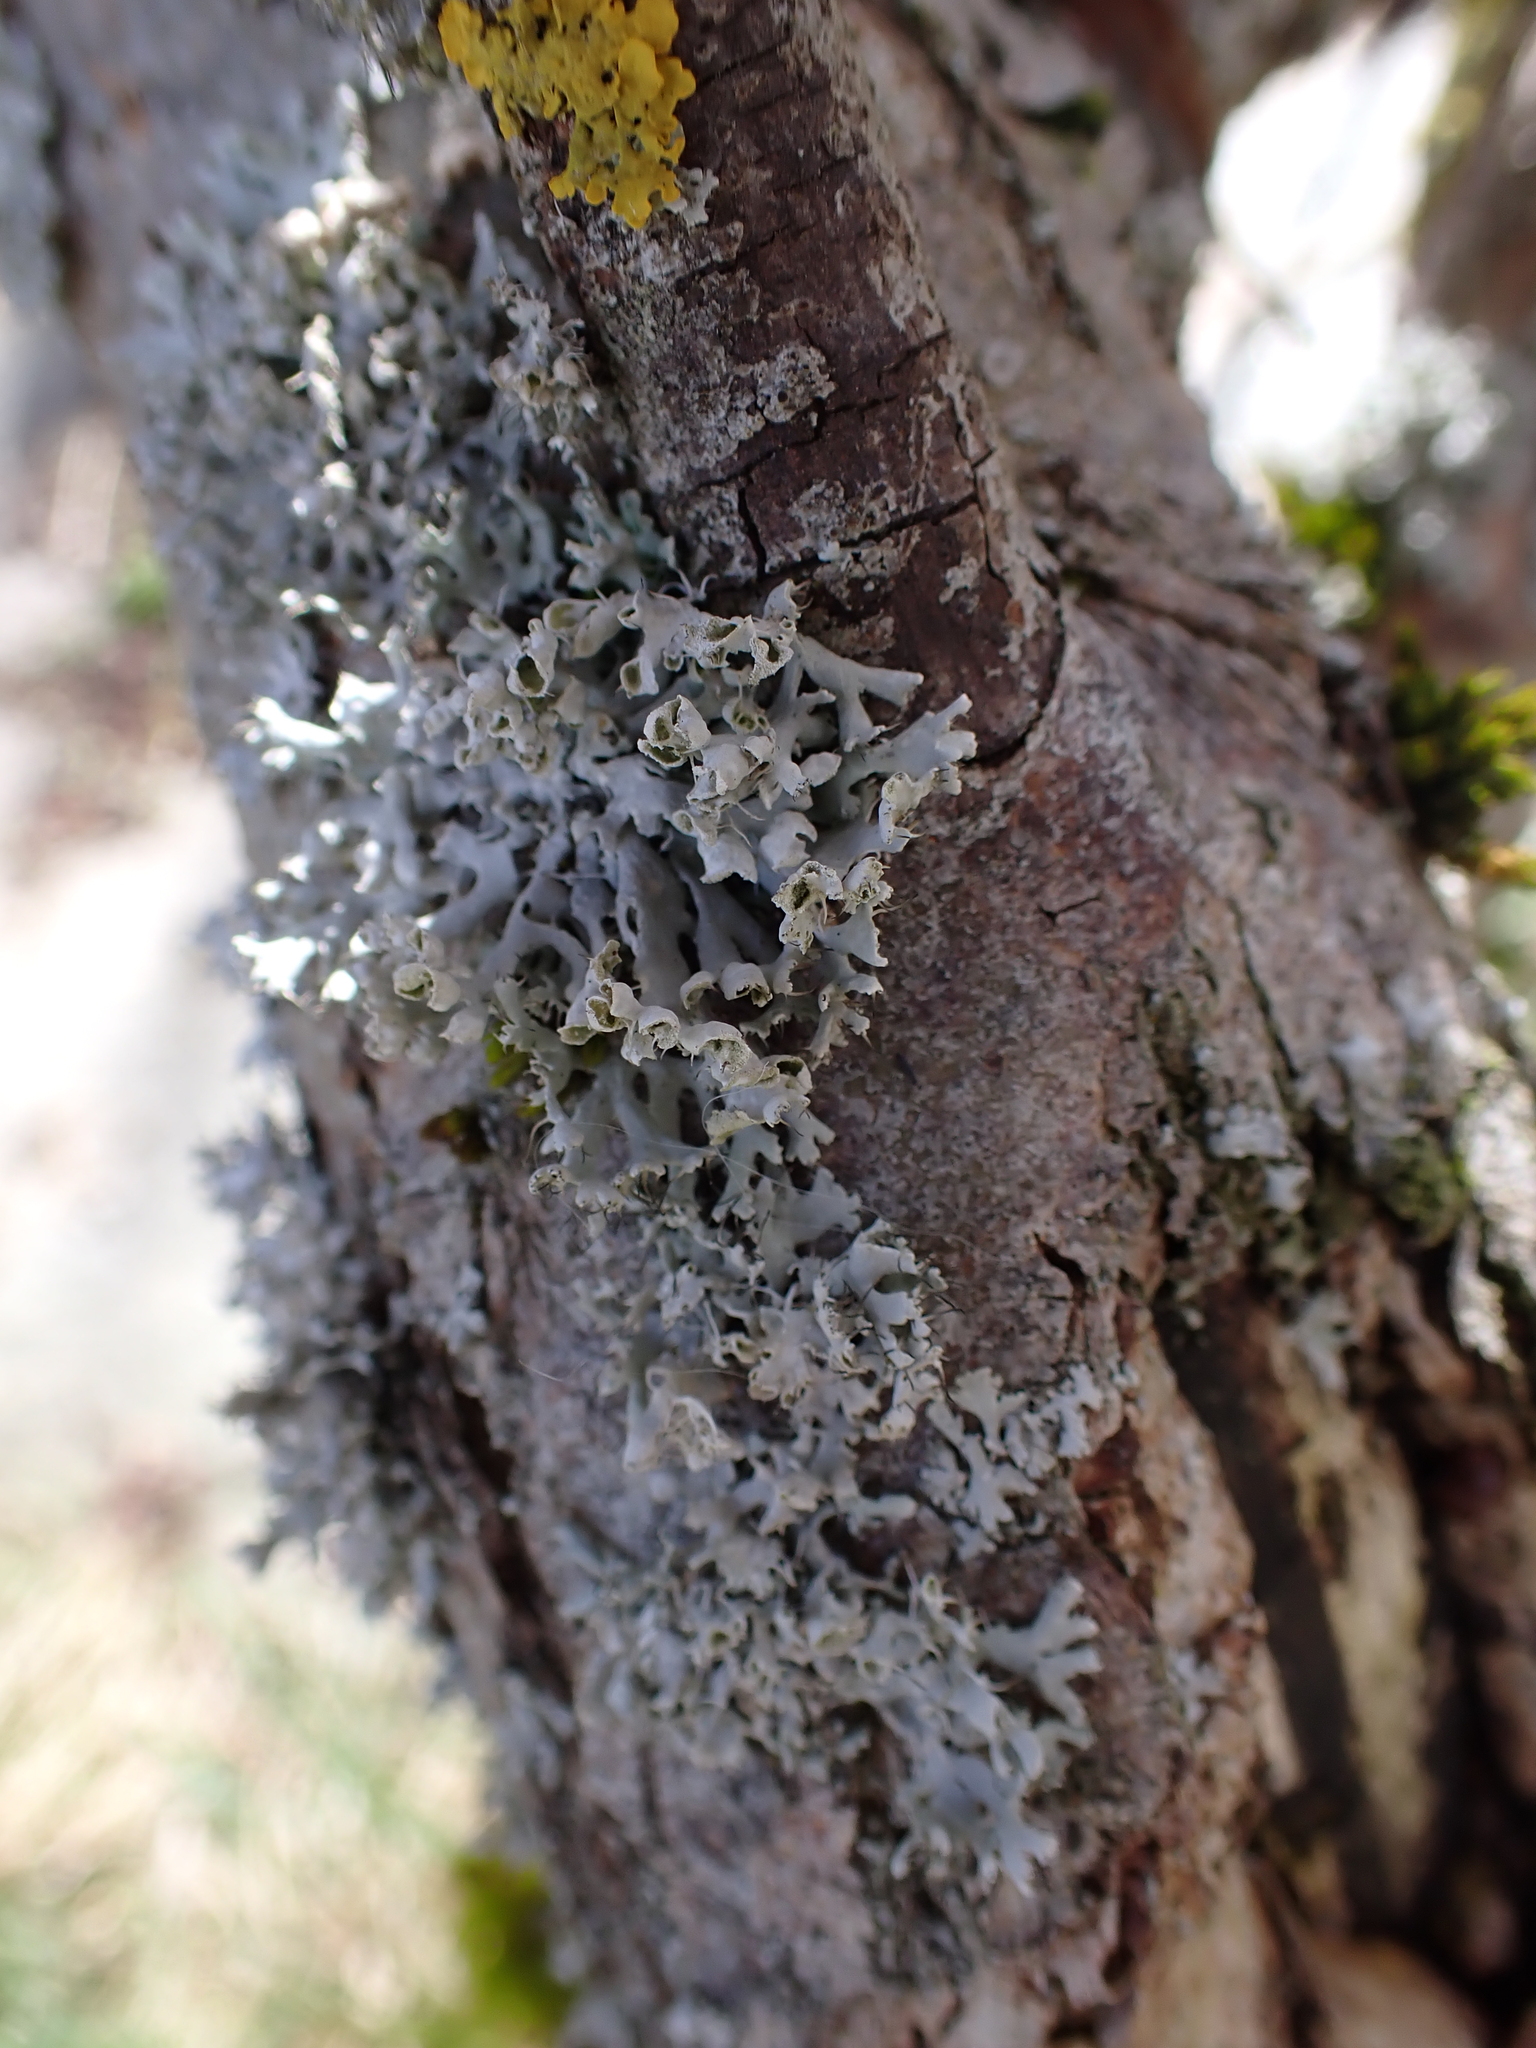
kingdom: Fungi
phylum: Ascomycota
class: Lecanoromycetes
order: Caliciales
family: Physciaceae
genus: Physcia
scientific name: Physcia adscendens
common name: Hooded rosette lichen
